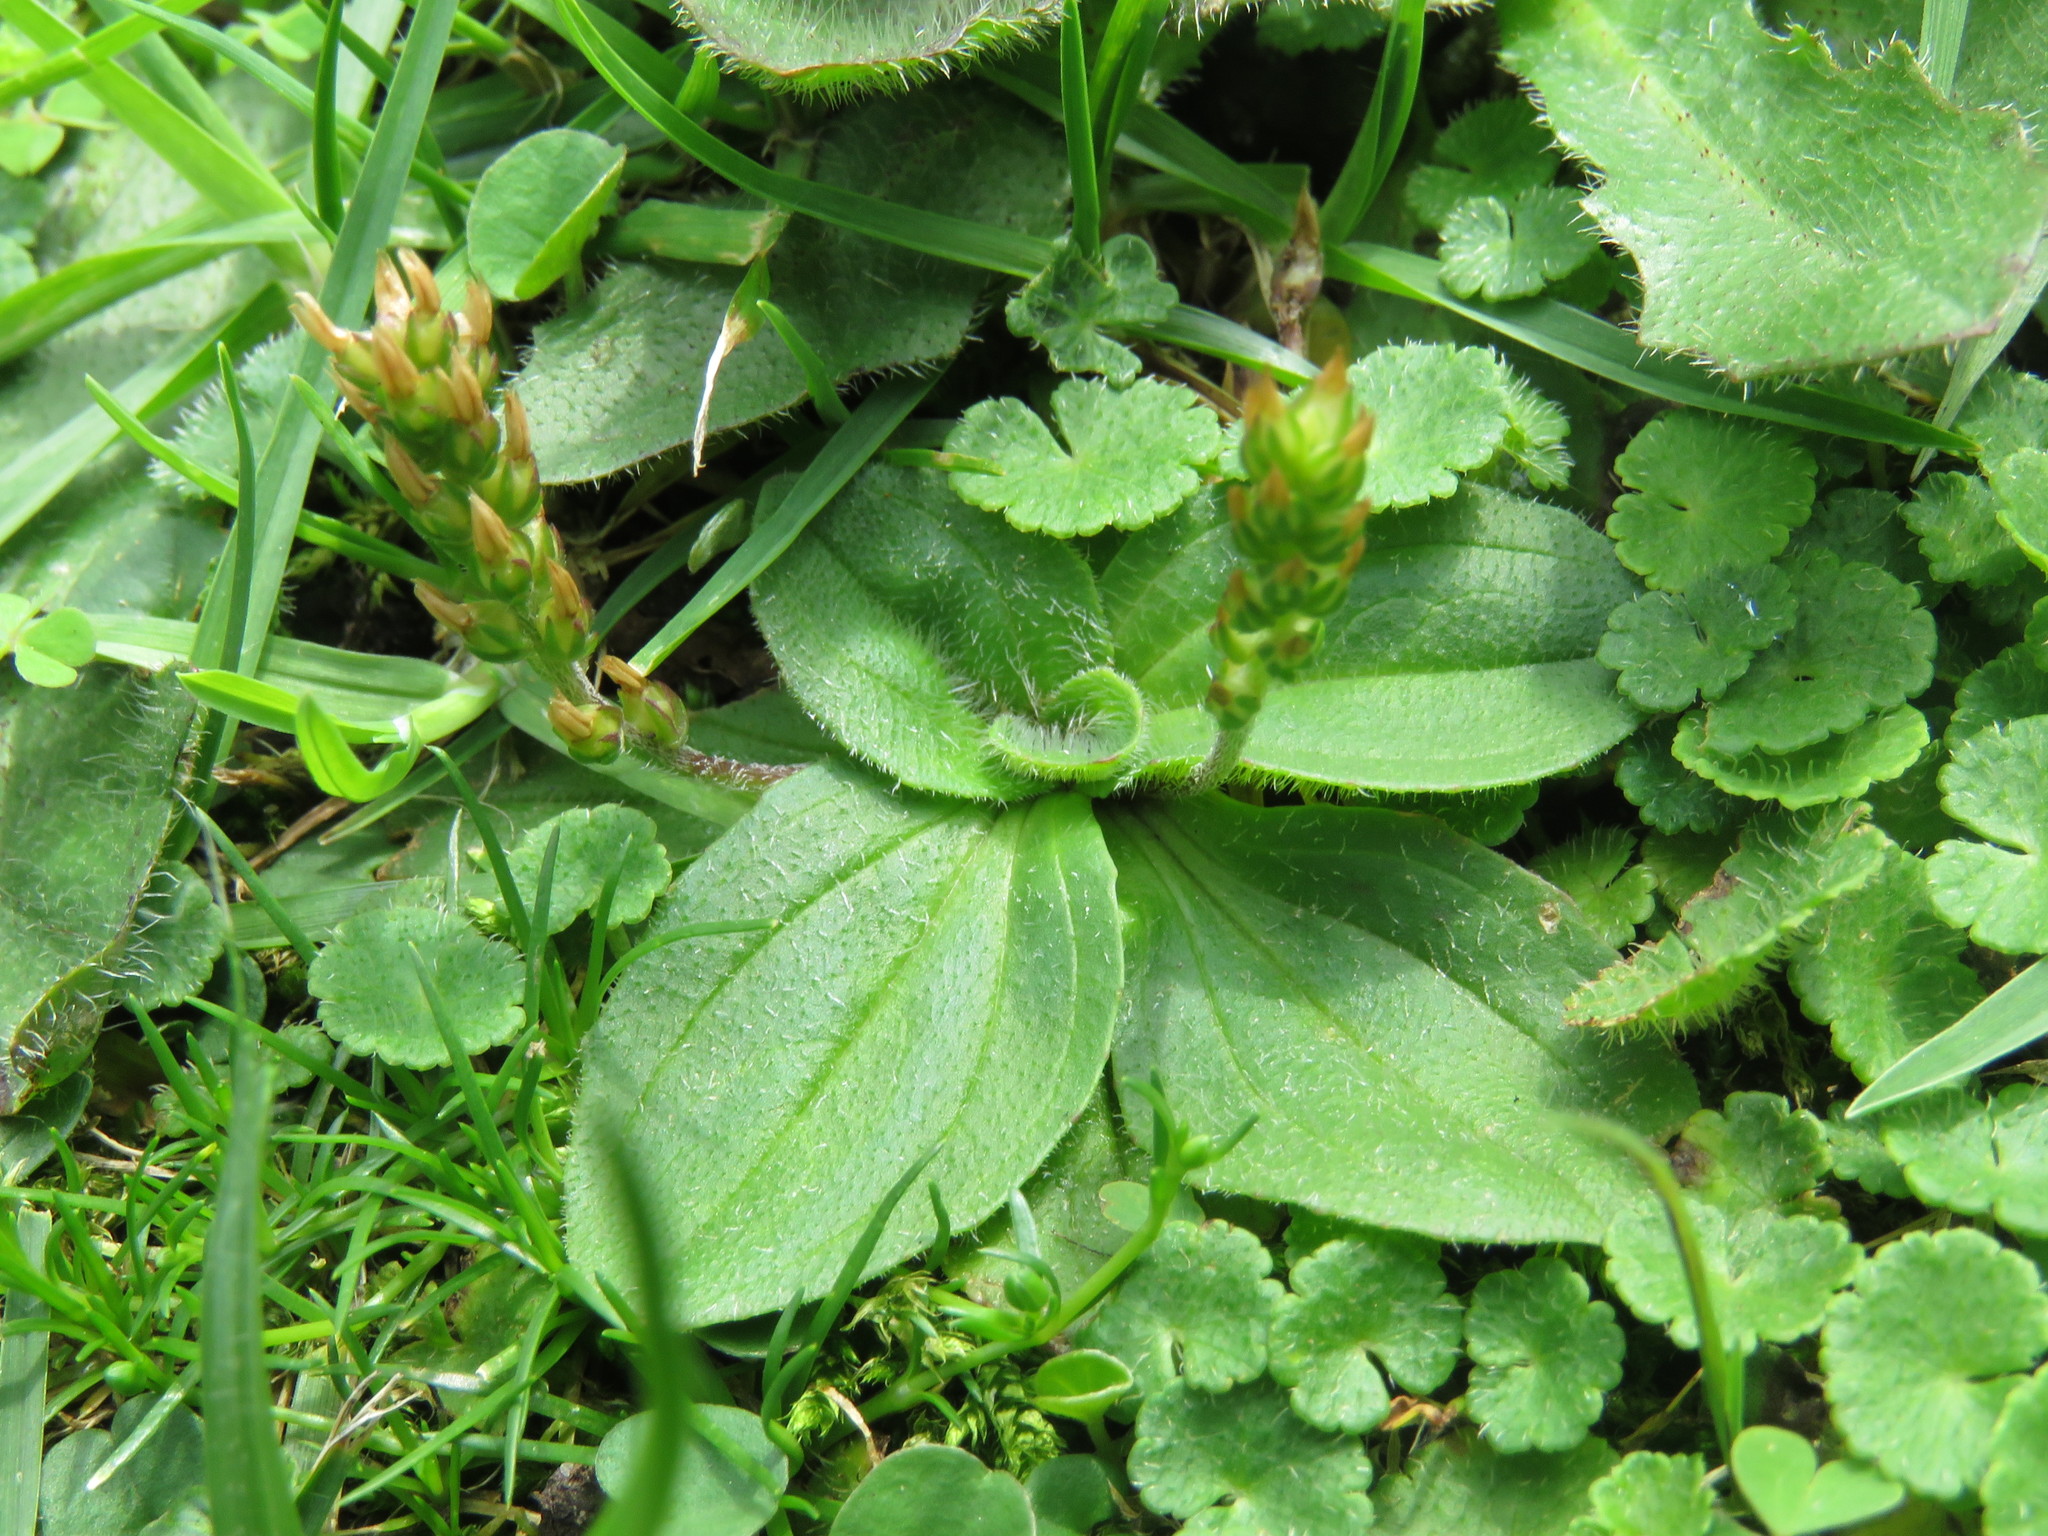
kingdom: Plantae
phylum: Tracheophyta
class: Magnoliopsida
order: Lamiales
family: Plantaginaceae
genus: Plantago
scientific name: Plantago australis
